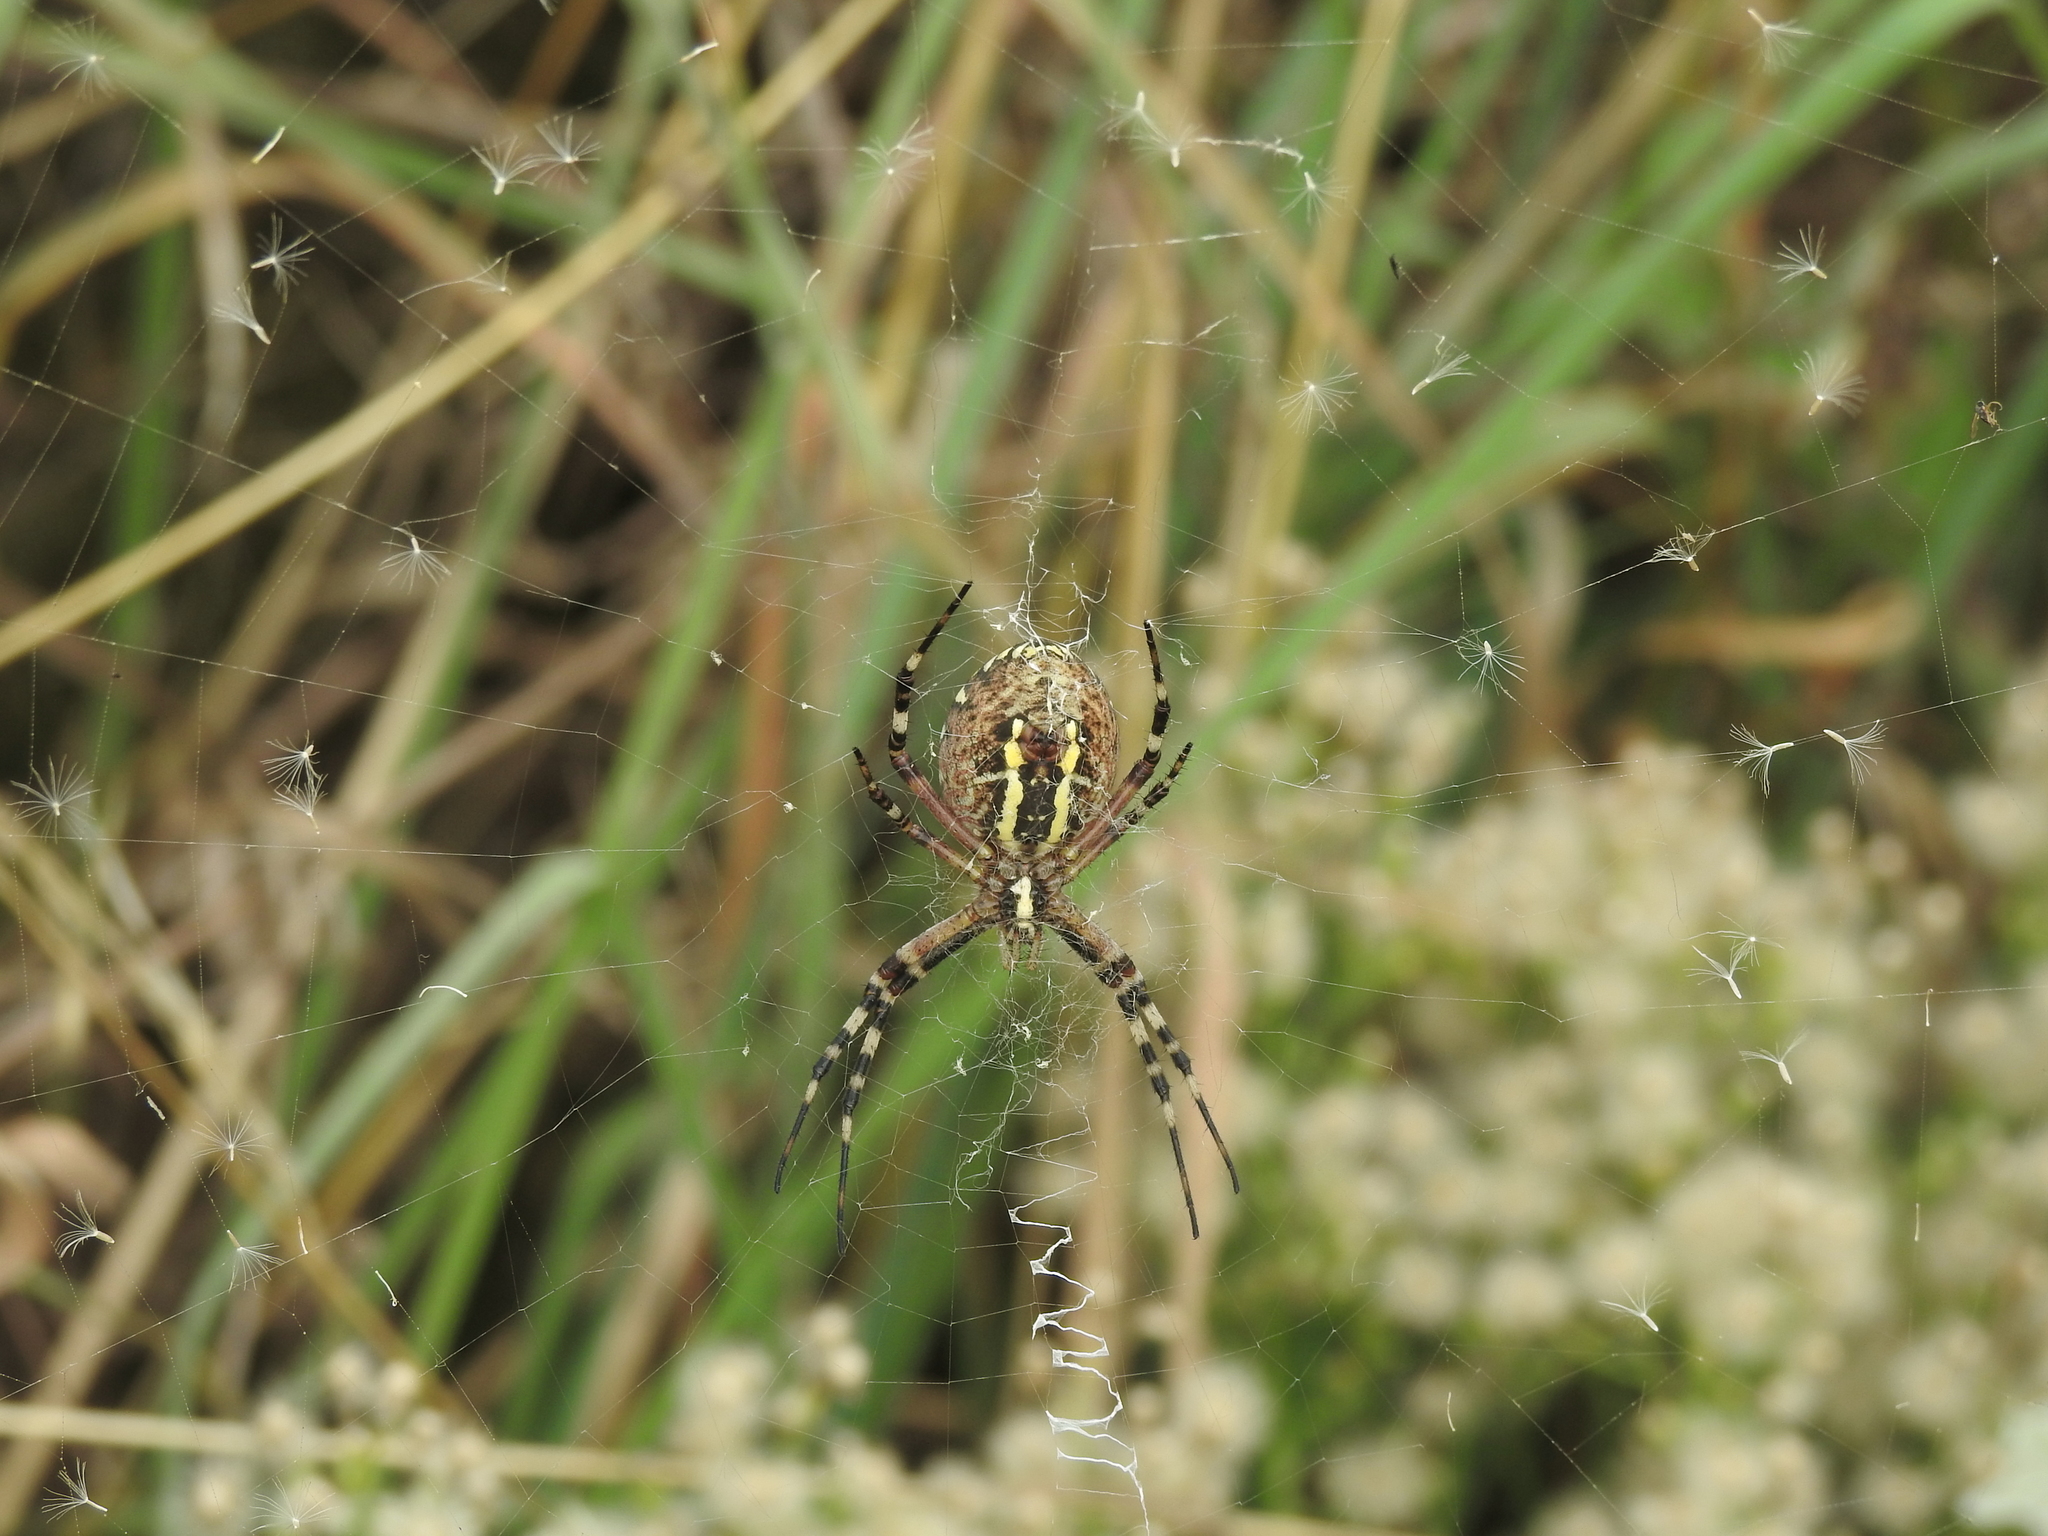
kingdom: Animalia
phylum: Arthropoda
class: Arachnida
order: Araneae
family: Araneidae
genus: Argiope
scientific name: Argiope bruennichi
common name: Wasp spider
